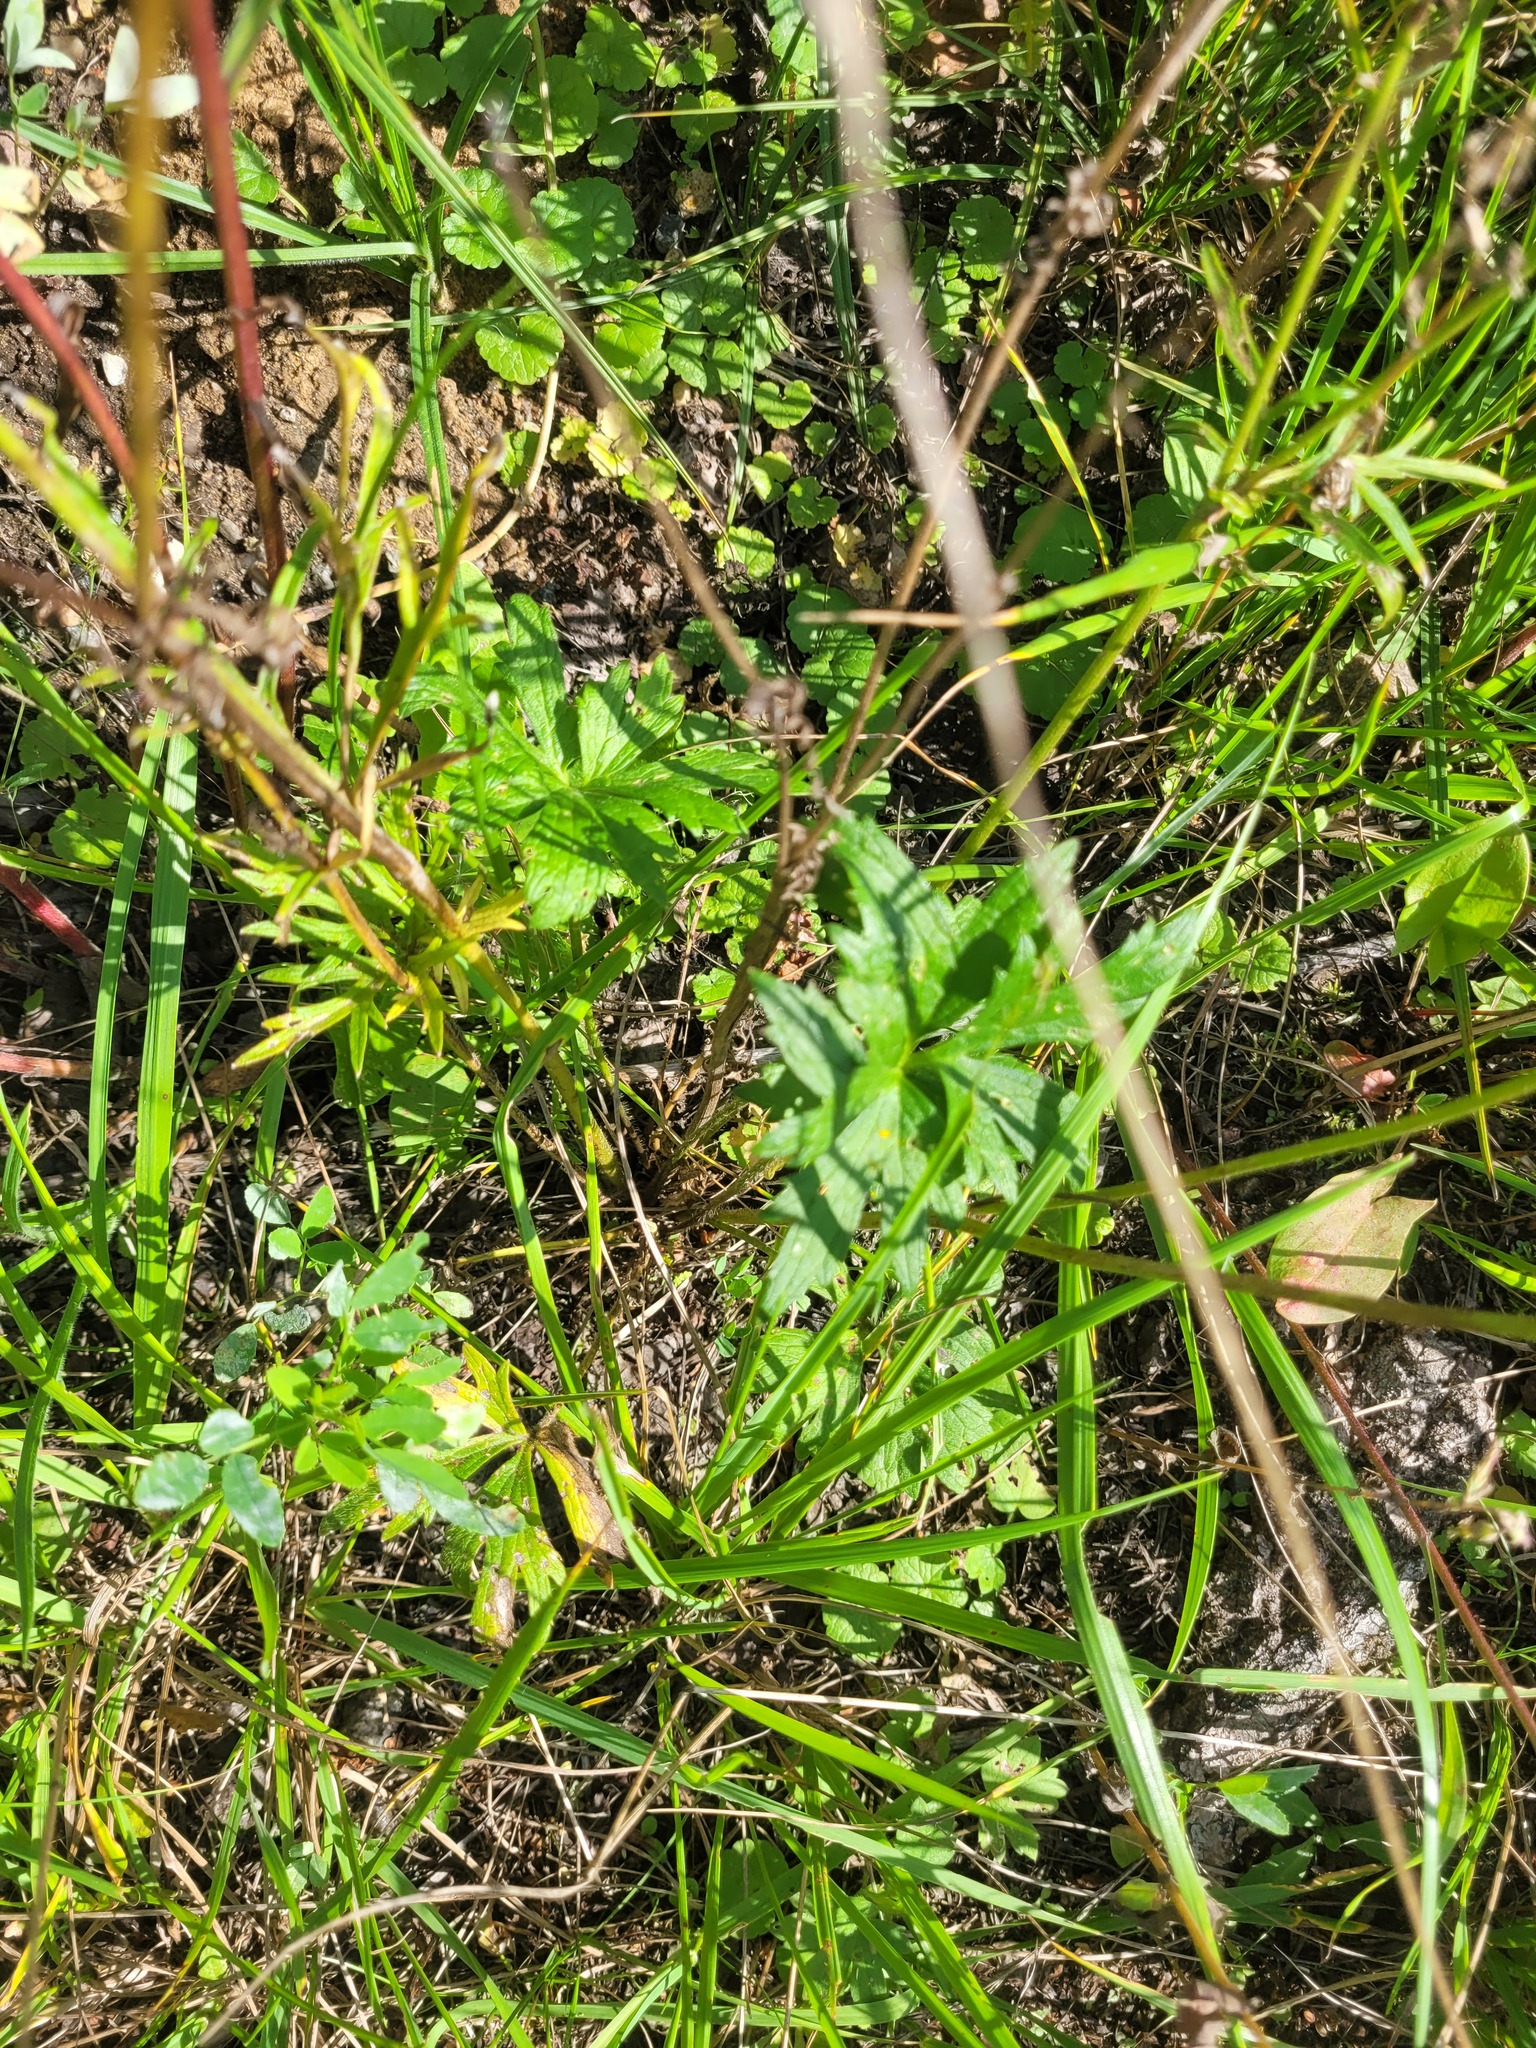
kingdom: Plantae
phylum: Tracheophyta
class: Magnoliopsida
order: Ranunculales
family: Ranunculaceae
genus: Ranunculus
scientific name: Ranunculus polyanthemos
